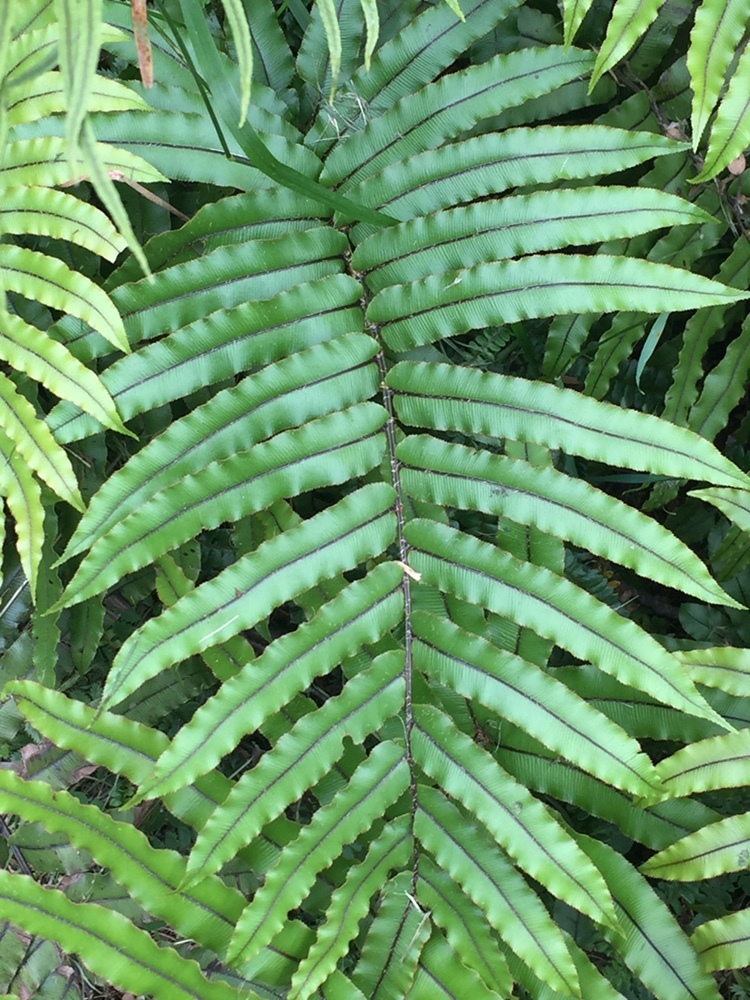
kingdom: Plantae
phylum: Tracheophyta
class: Polypodiopsida
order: Polypodiales
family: Blechnaceae
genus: Parablechnum
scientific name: Parablechnum montanum
